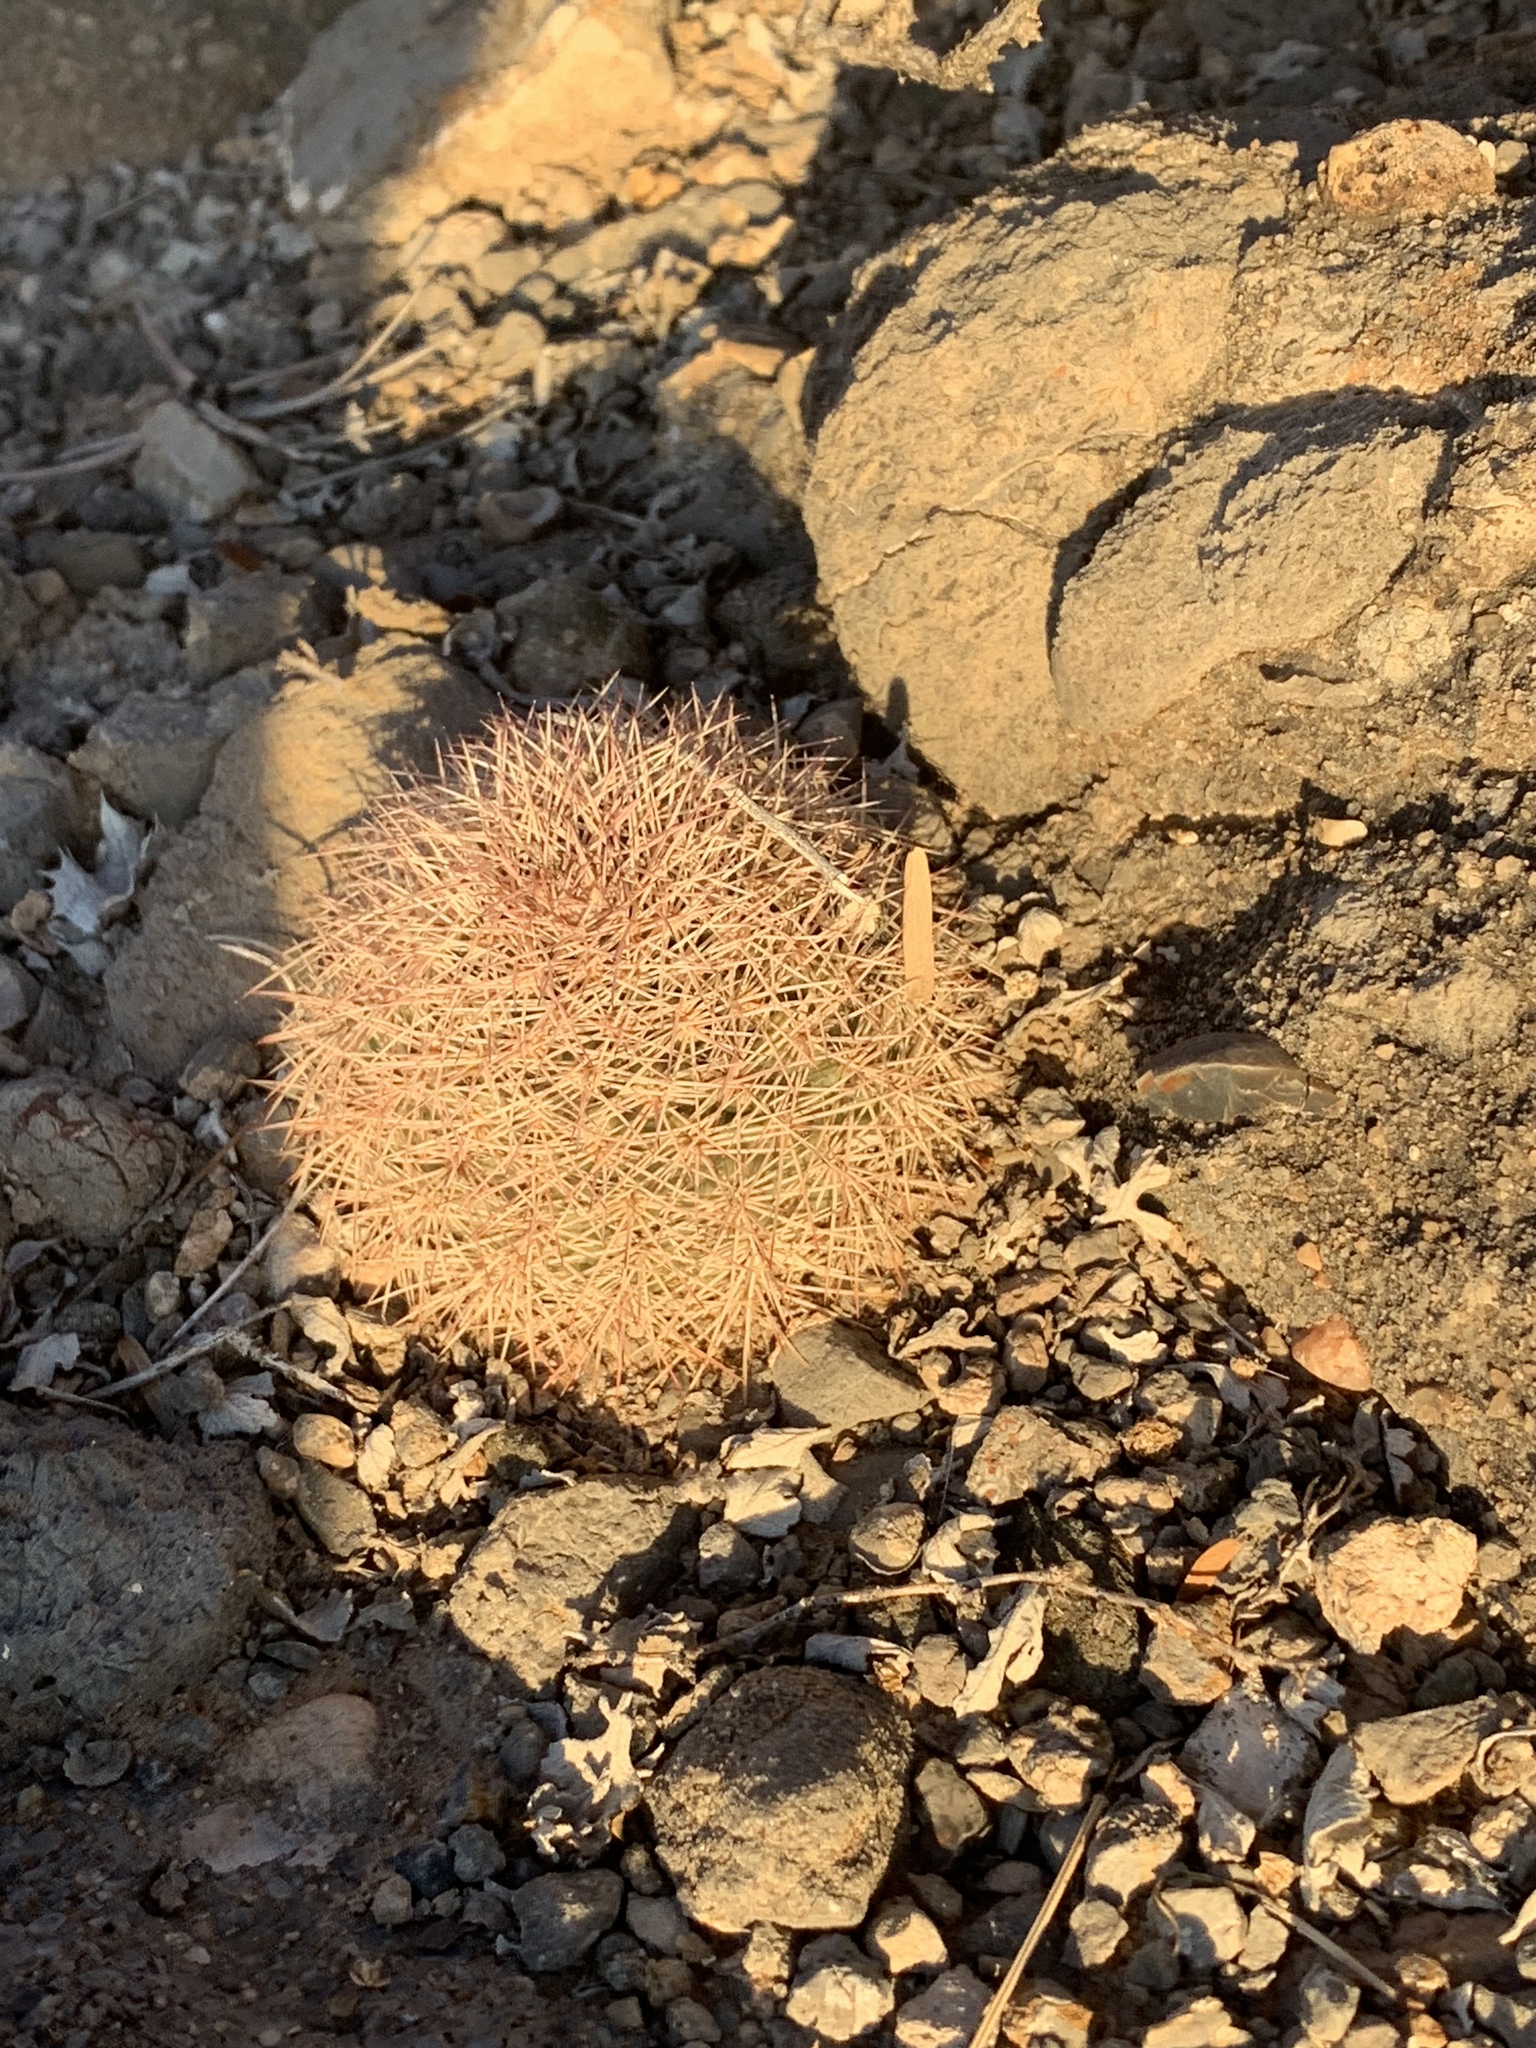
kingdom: Plantae
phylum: Tracheophyta
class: Magnoliopsida
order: Caryophyllales
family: Cactaceae
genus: Echinocereus
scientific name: Echinocereus dasyacanthus
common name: Spiny hedgehog cactus
